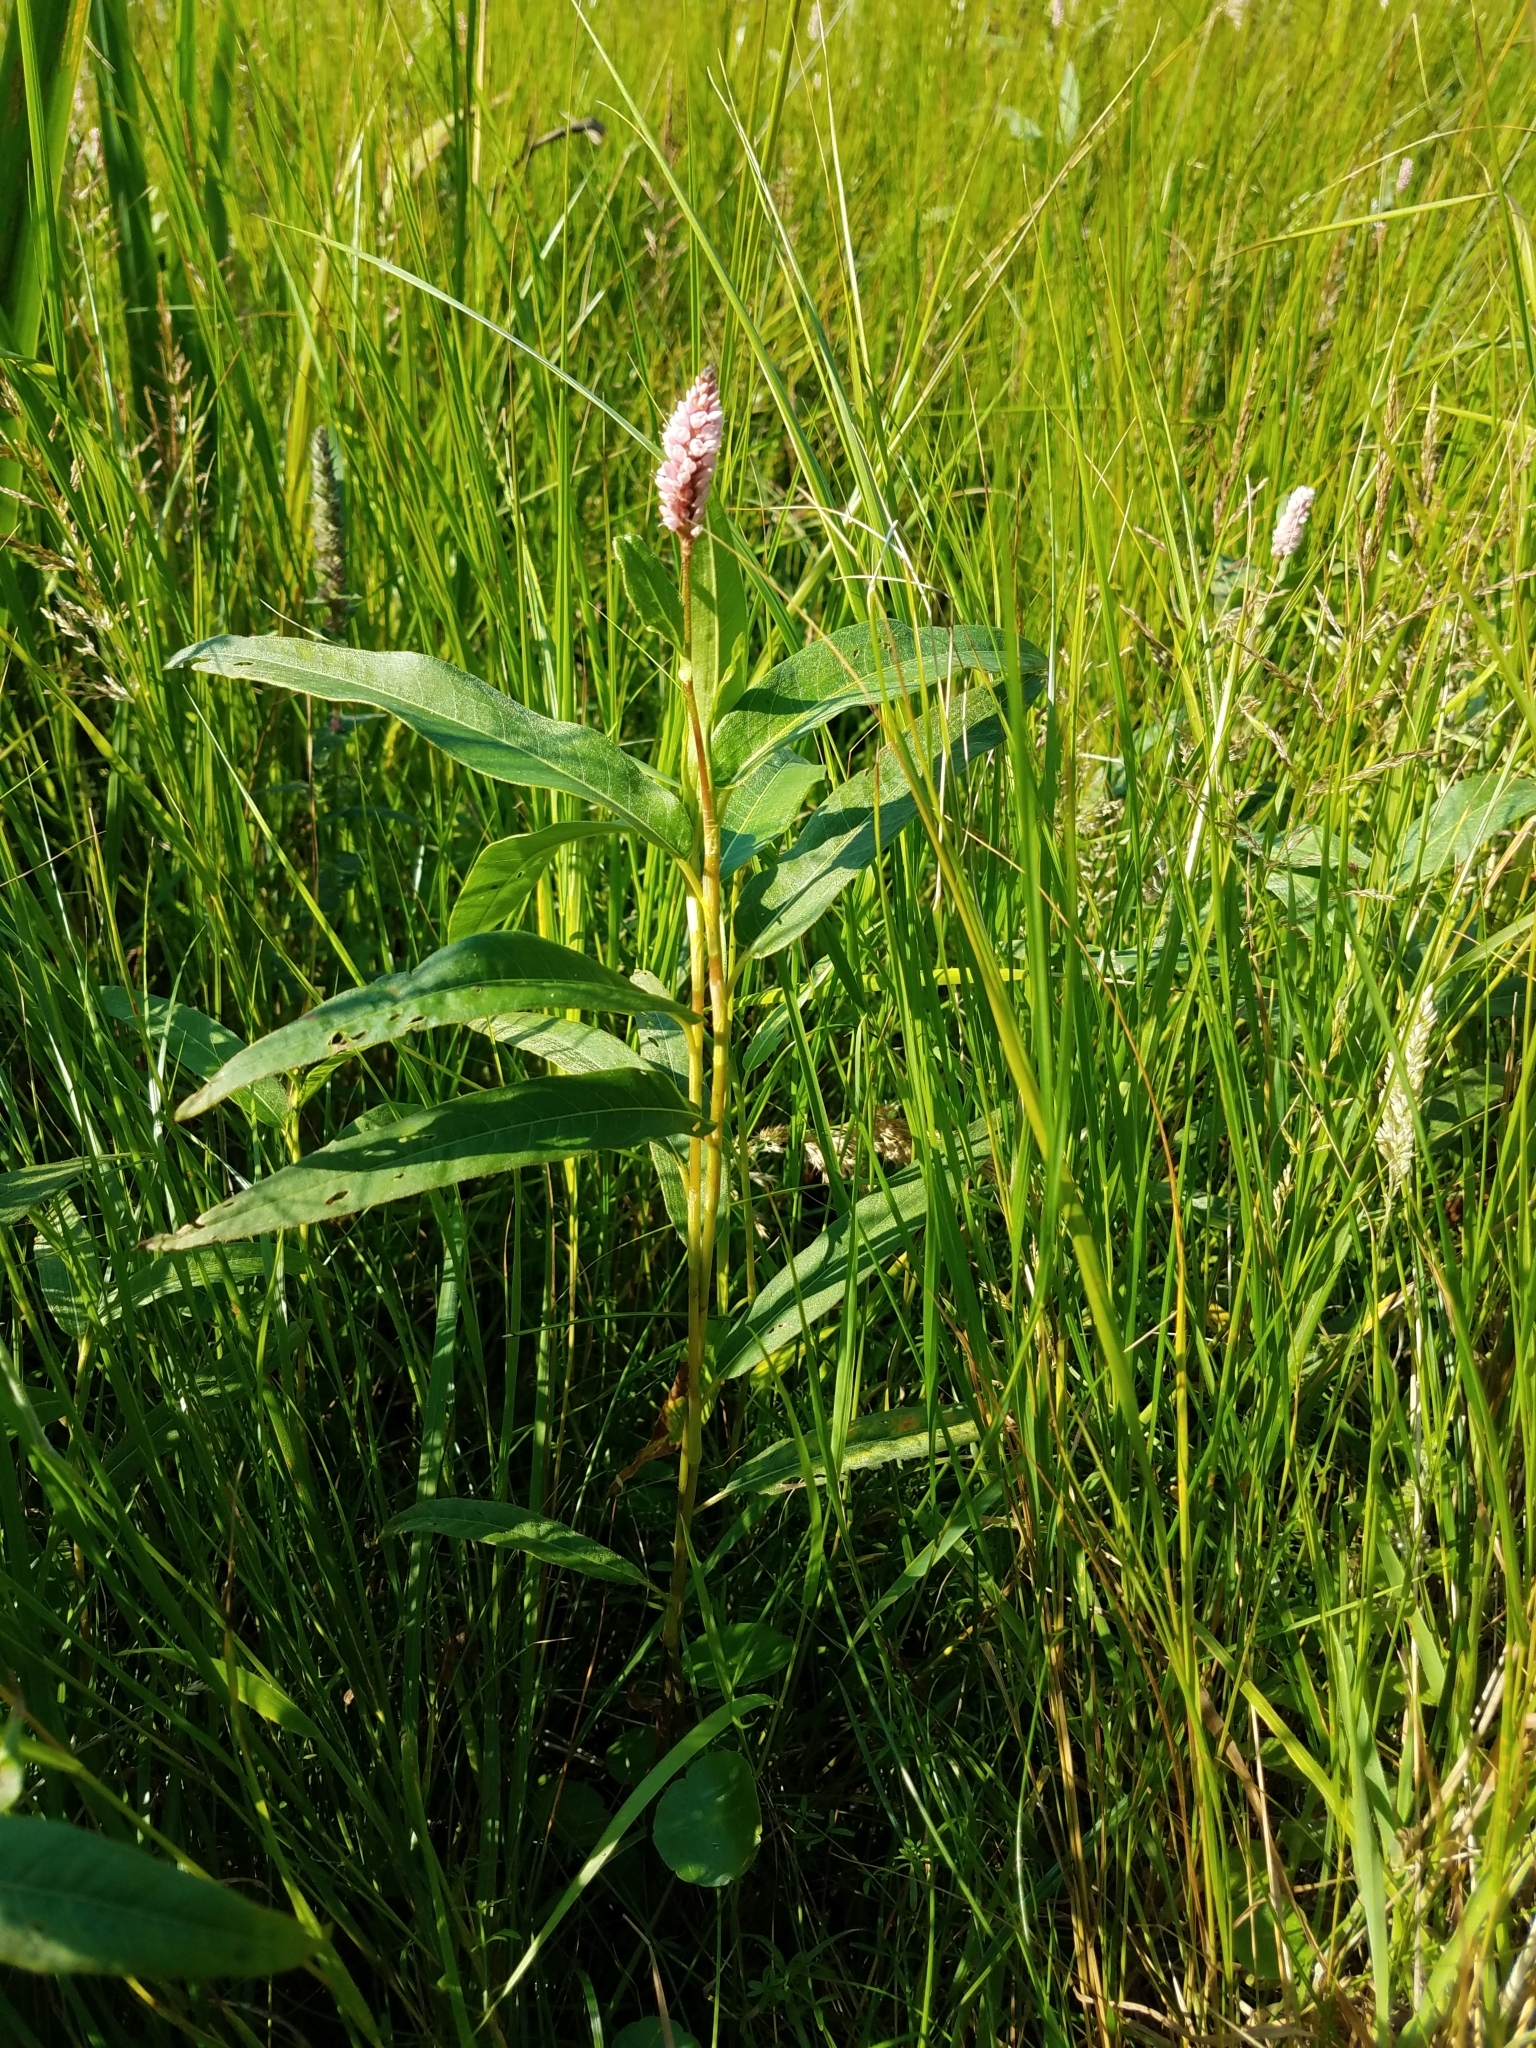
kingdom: Plantae
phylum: Tracheophyta
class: Magnoliopsida
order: Caryophyllales
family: Polygonaceae
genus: Persicaria
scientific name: Persicaria amphibia
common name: Amphibious bistort
